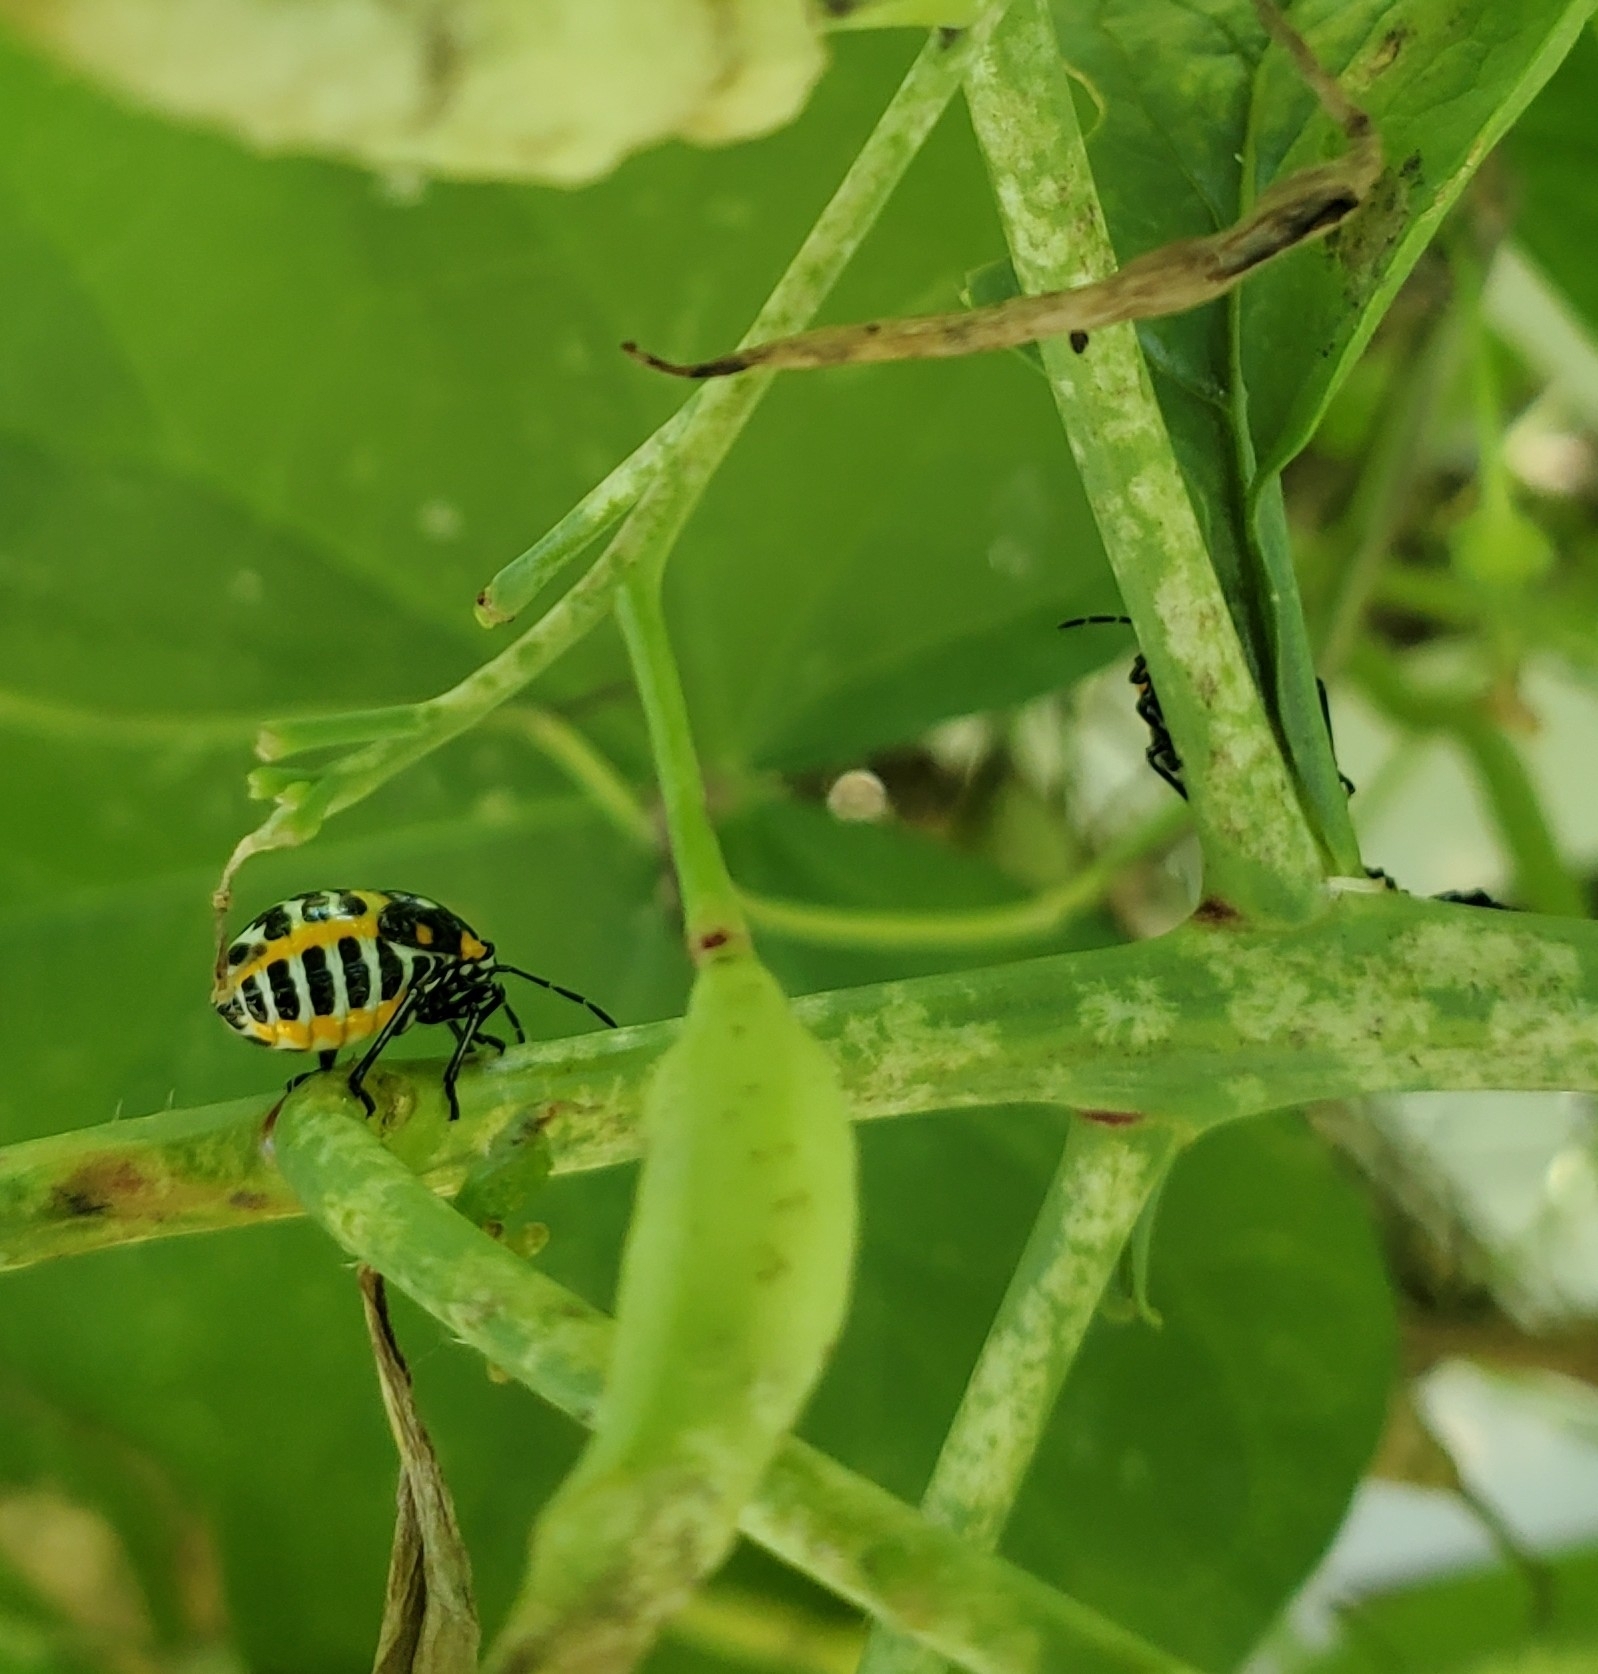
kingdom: Animalia
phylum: Arthropoda
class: Insecta
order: Hemiptera
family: Pentatomidae
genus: Murgantia
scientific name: Murgantia histrionica
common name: Harlequin bug
